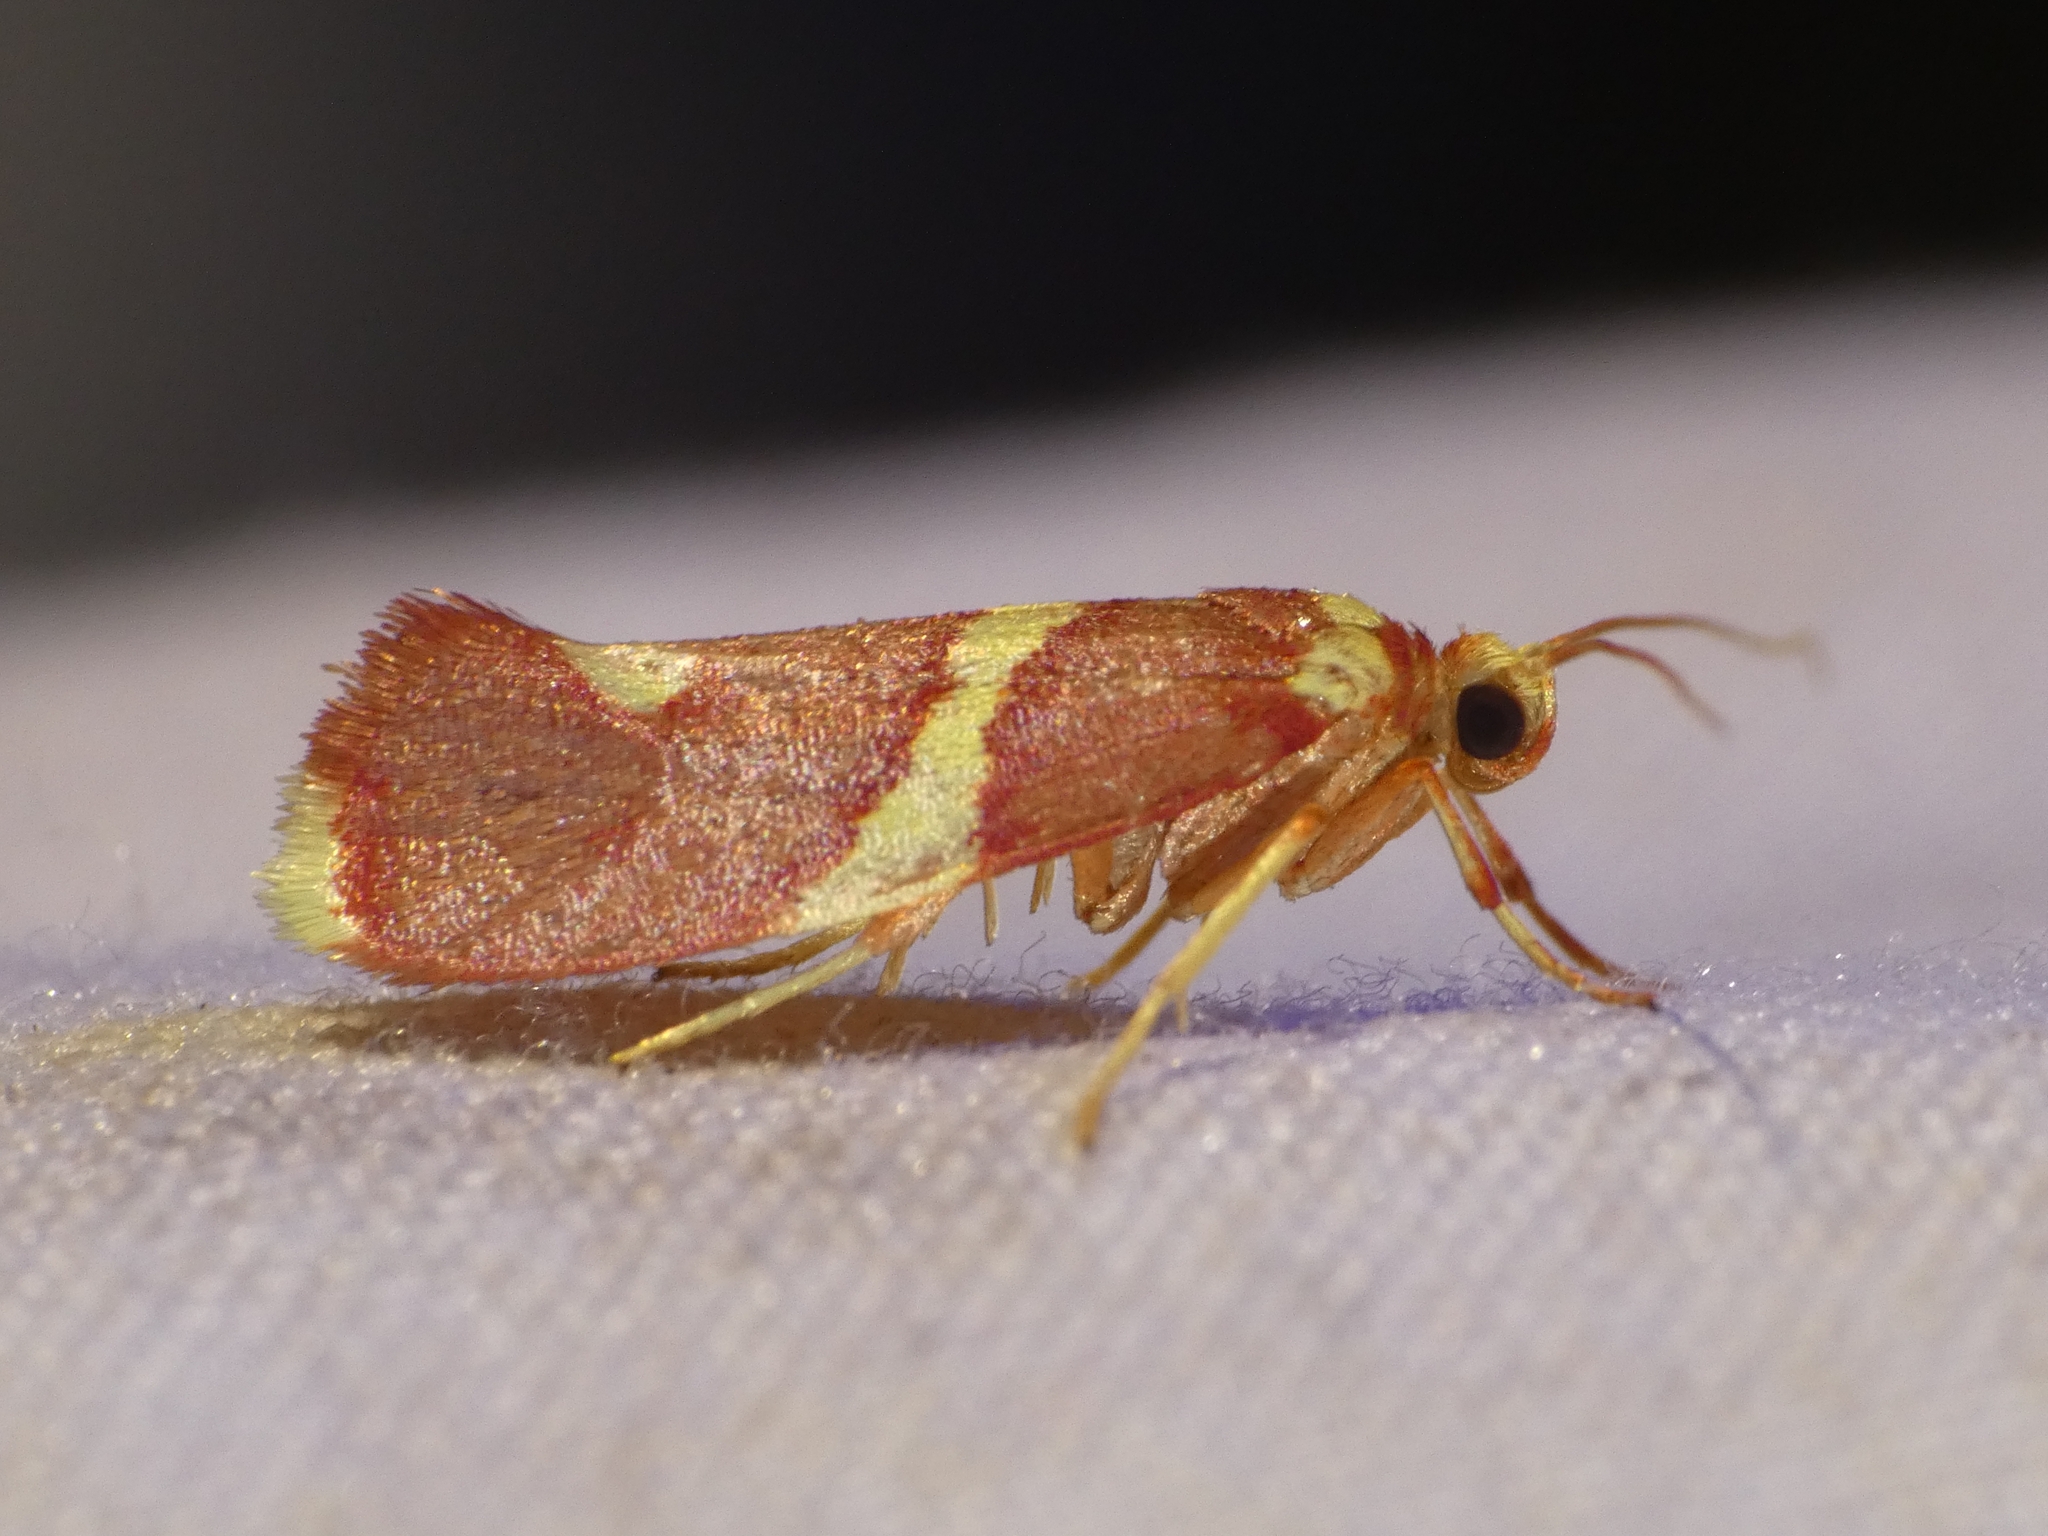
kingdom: Animalia
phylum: Arthropoda
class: Insecta
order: Lepidoptera
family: Lacturidae
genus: Anticrates
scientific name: Anticrates metreta
